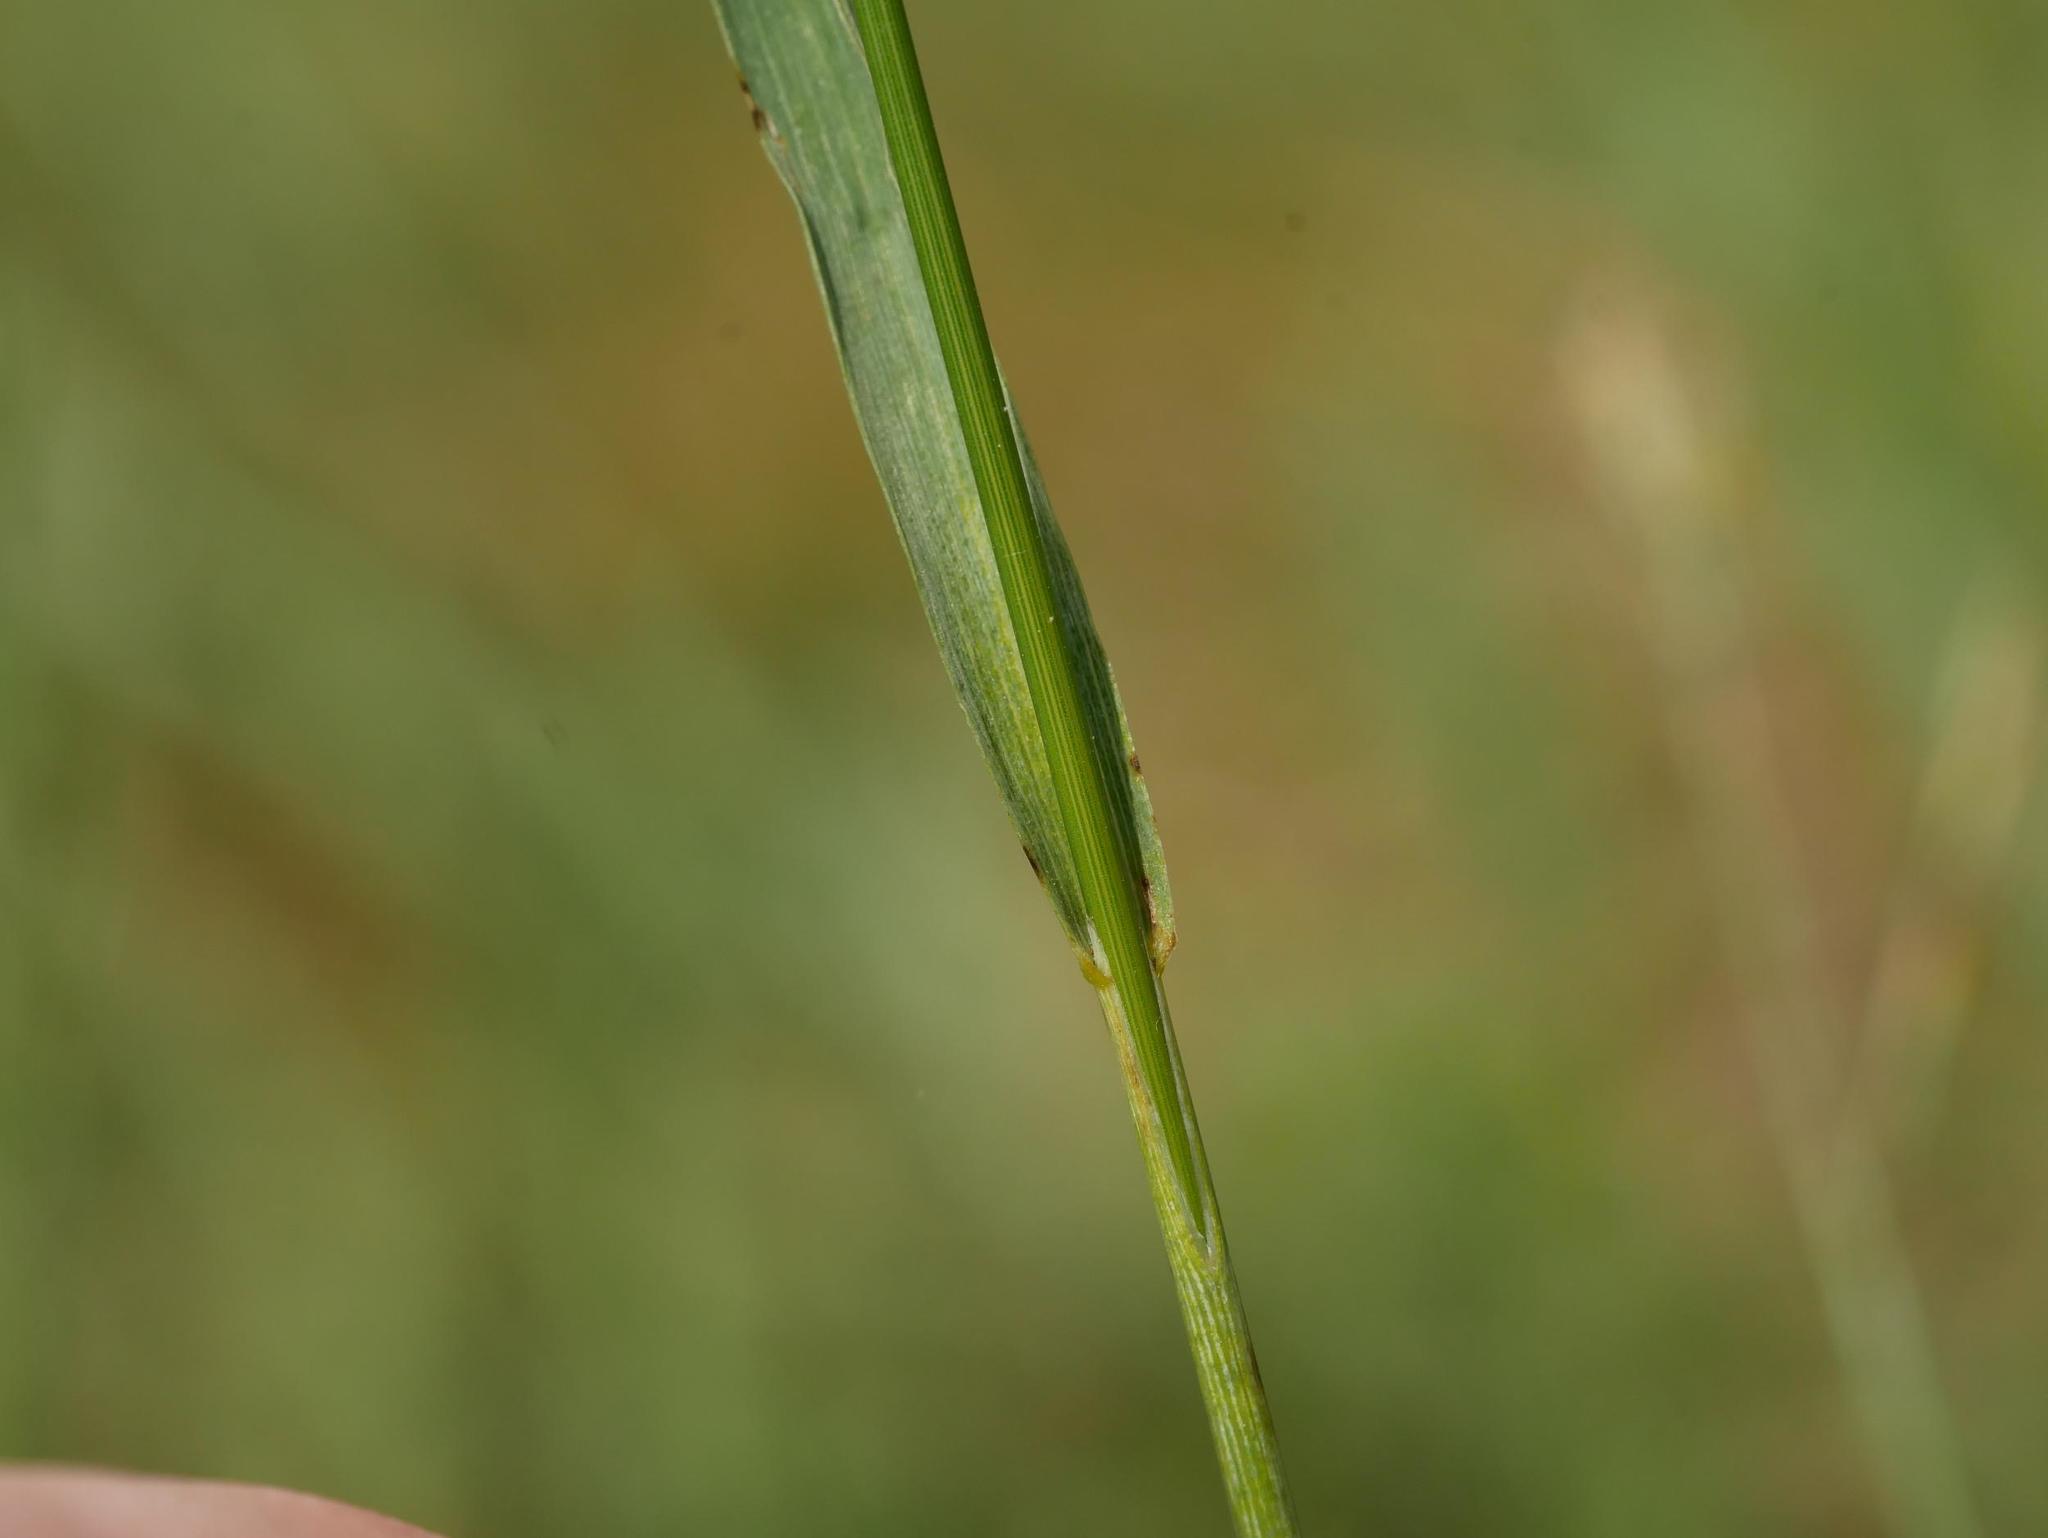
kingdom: Plantae
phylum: Tracheophyta
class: Liliopsida
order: Poales
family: Poaceae
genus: Bromus
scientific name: Bromus inermis
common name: Smooth brome
